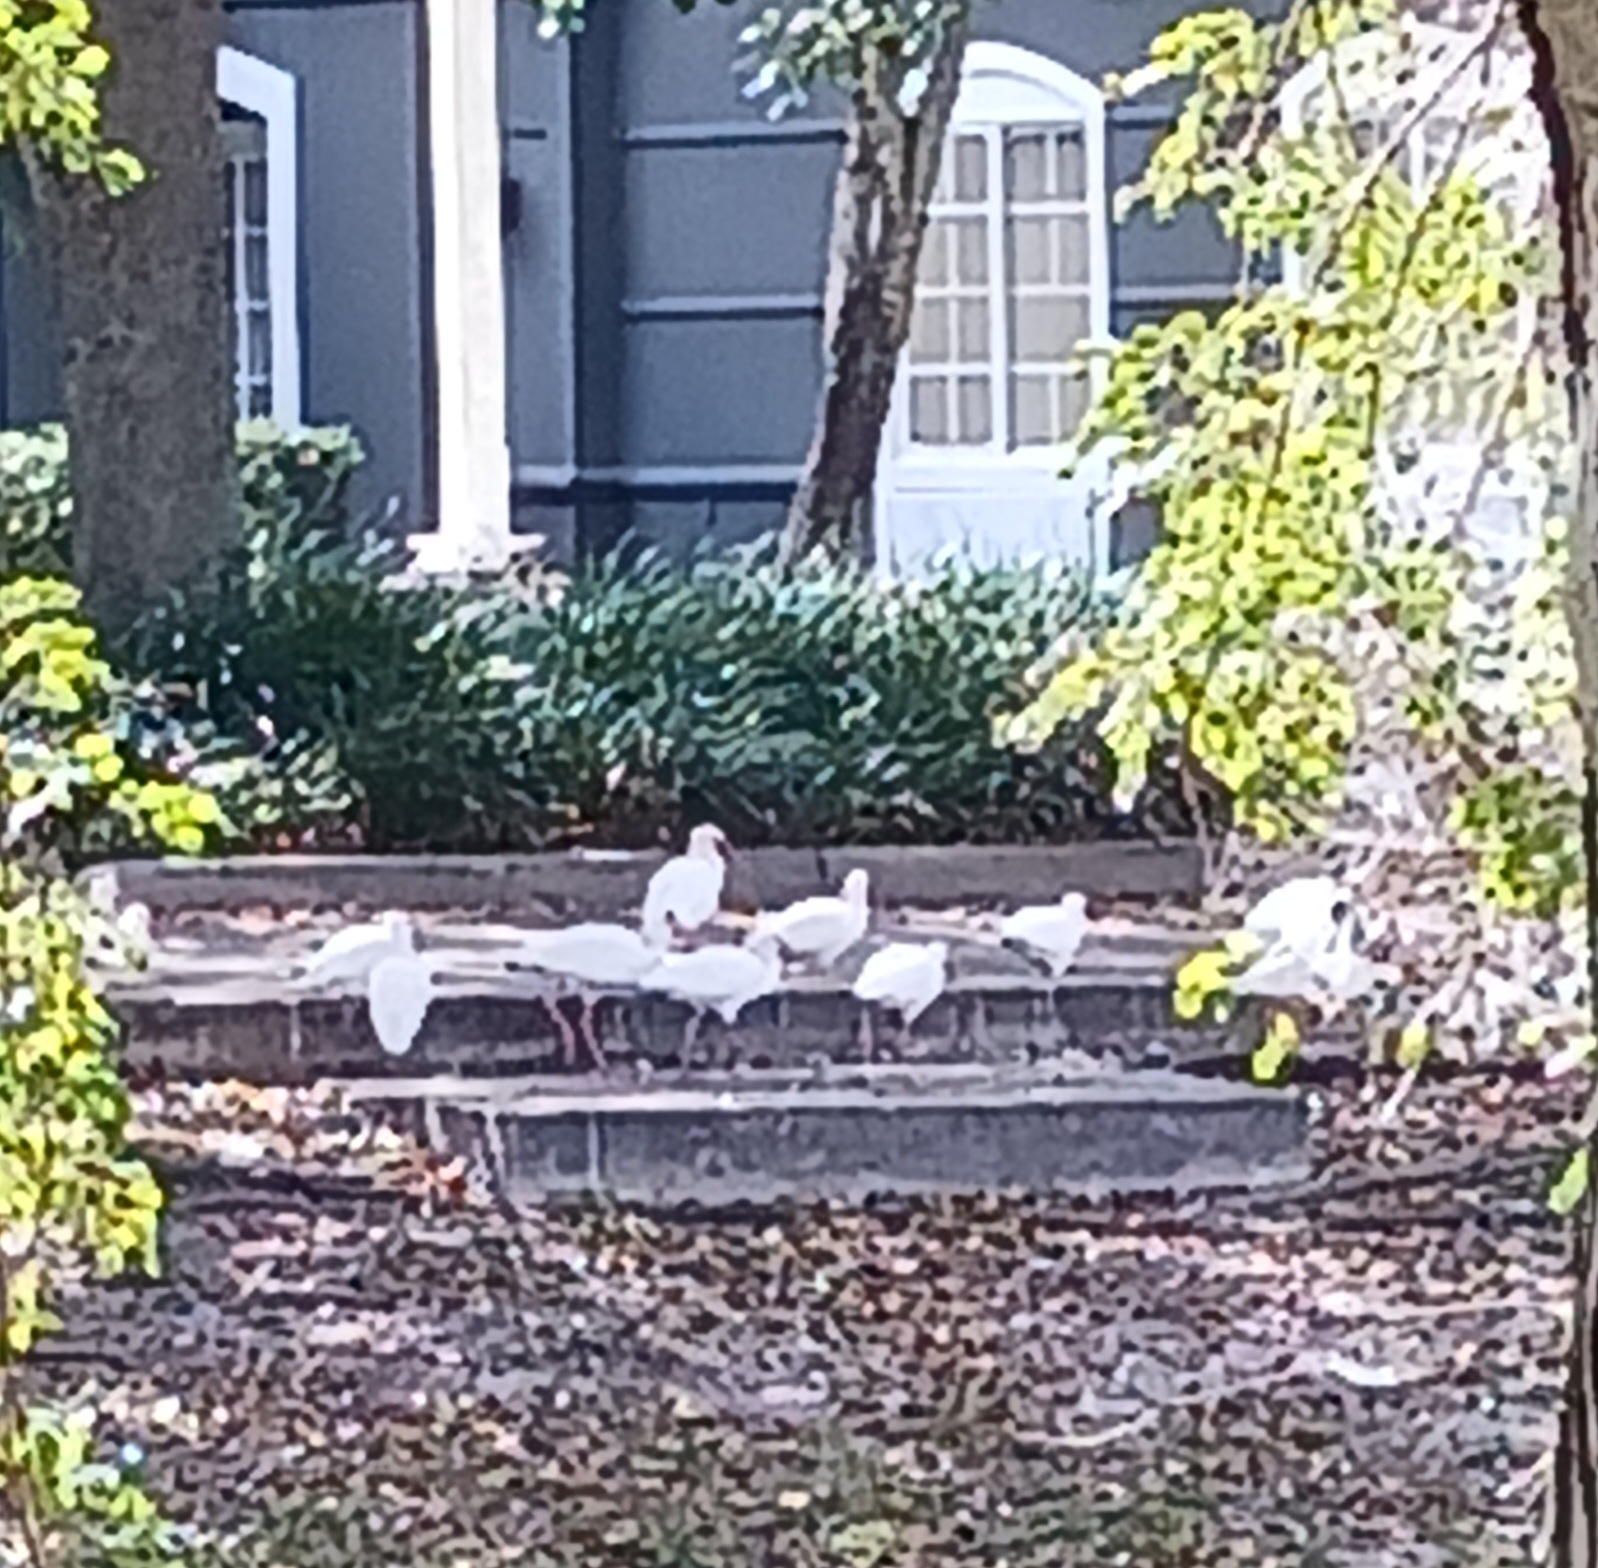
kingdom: Animalia
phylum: Chordata
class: Aves
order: Pelecaniformes
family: Threskiornithidae
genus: Eudocimus
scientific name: Eudocimus albus
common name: White ibis
